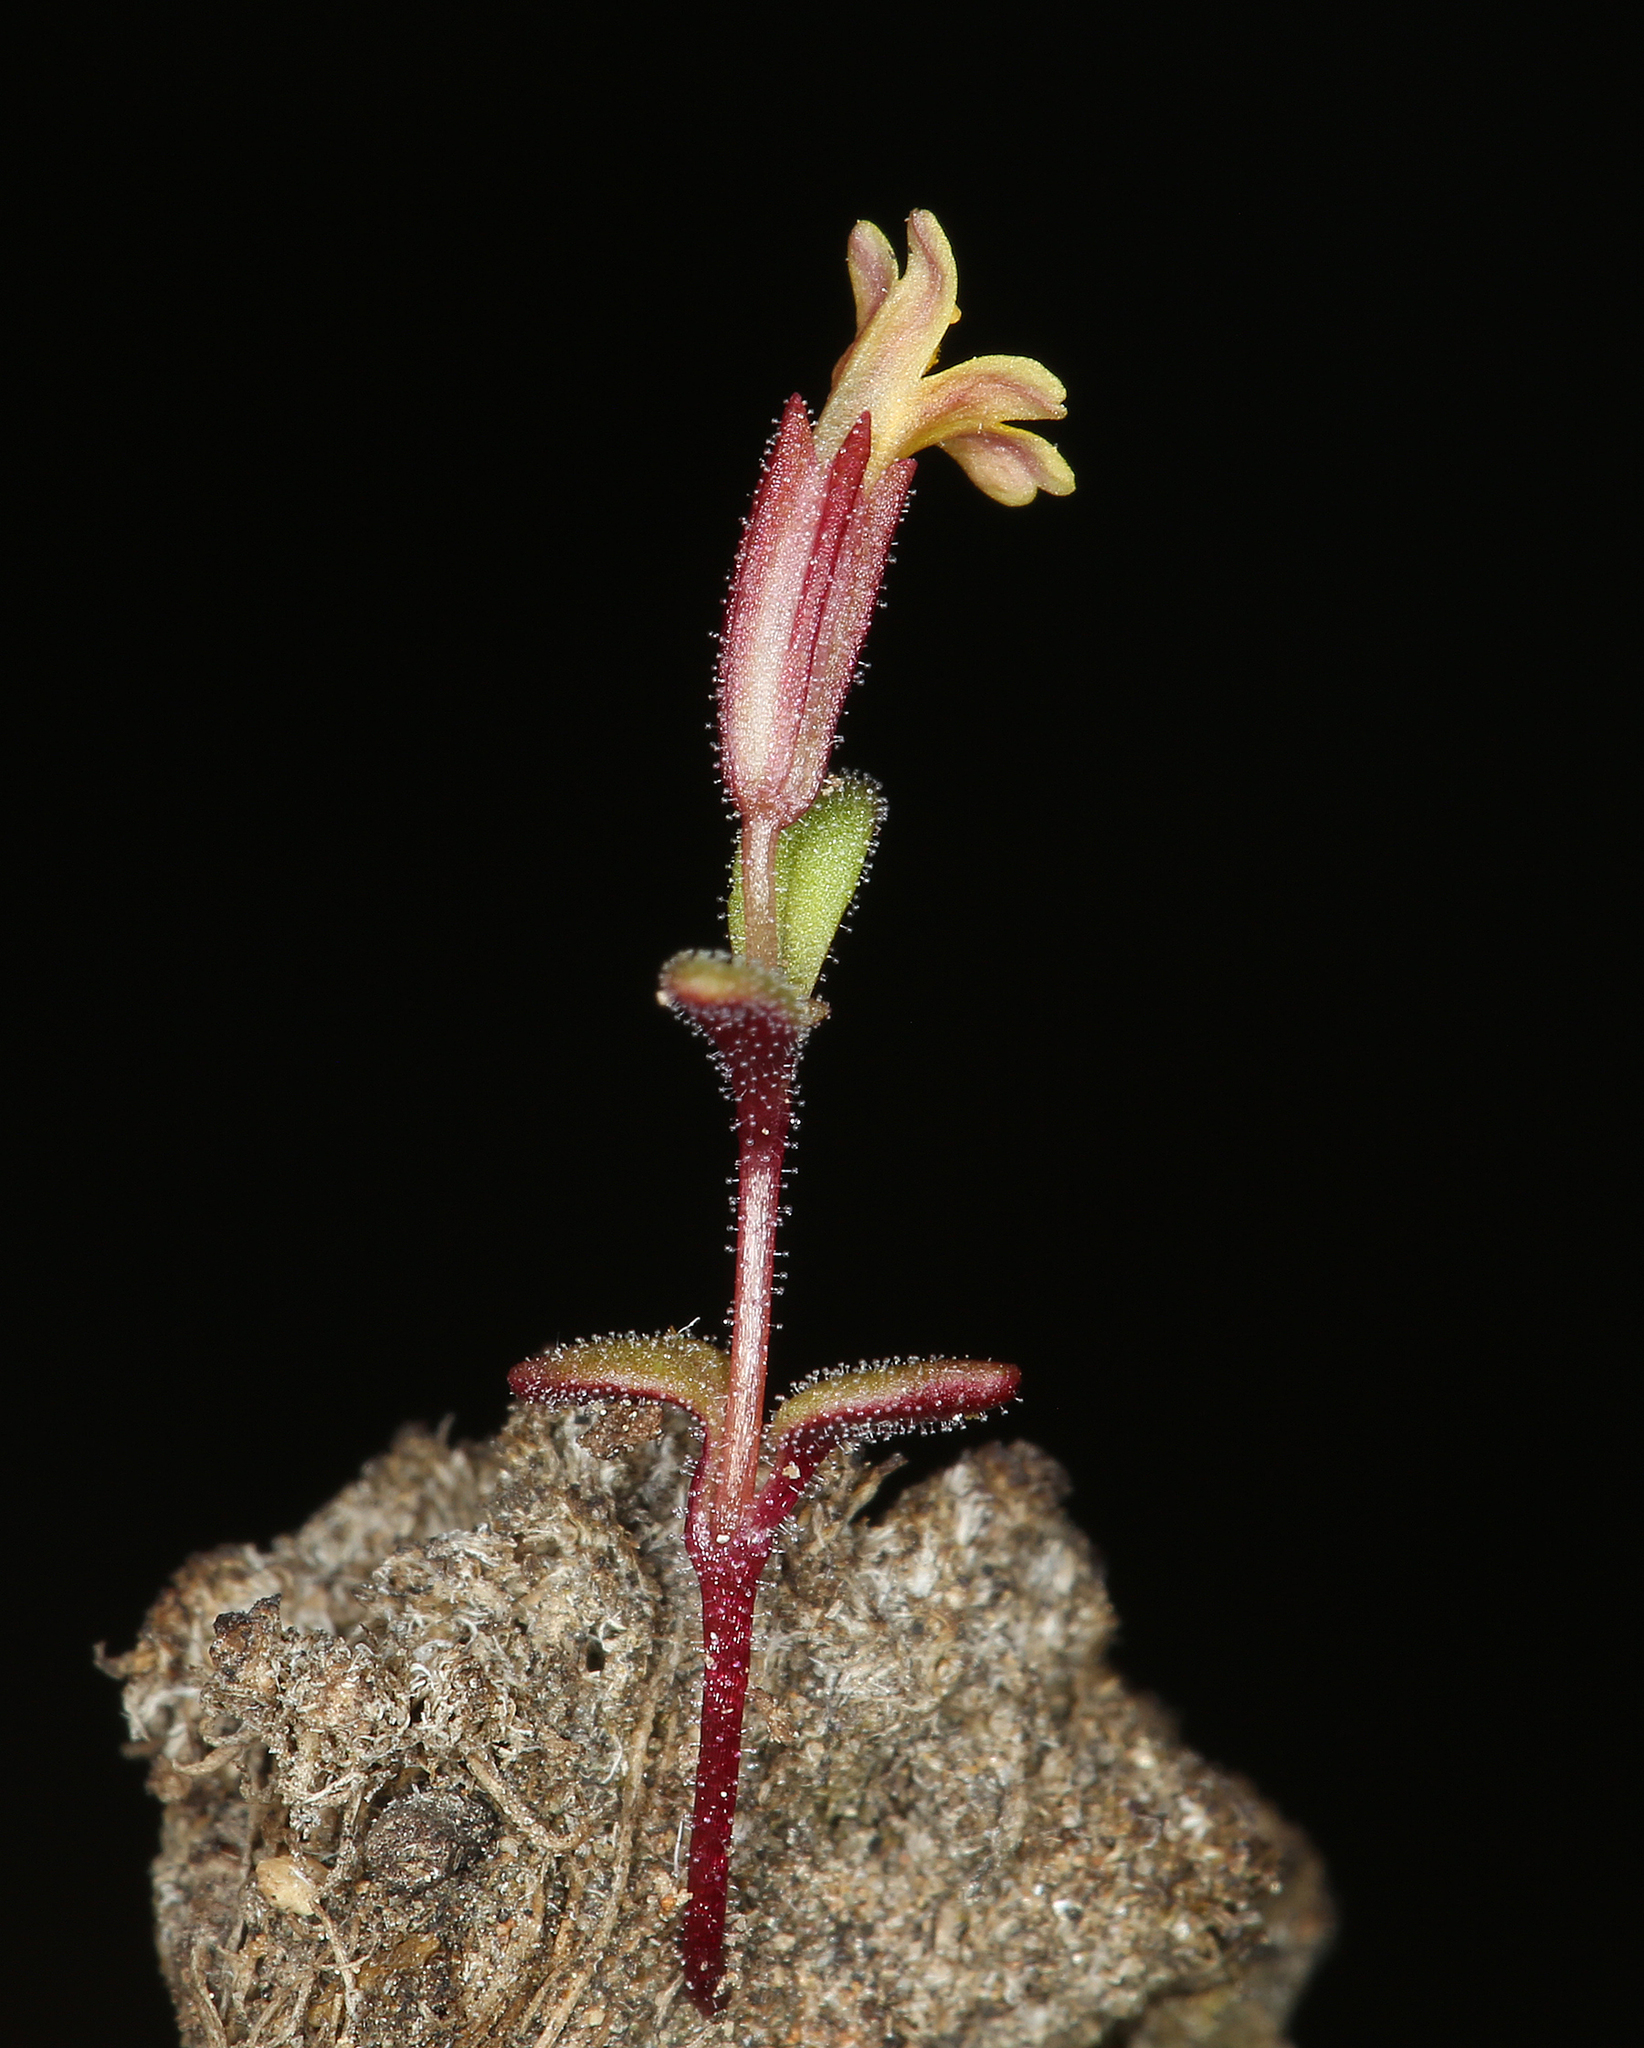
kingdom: Plantae
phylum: Tracheophyta
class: Magnoliopsida
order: Lamiales
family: Phrymaceae
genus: Erythranthe
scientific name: Erythranthe rubella
